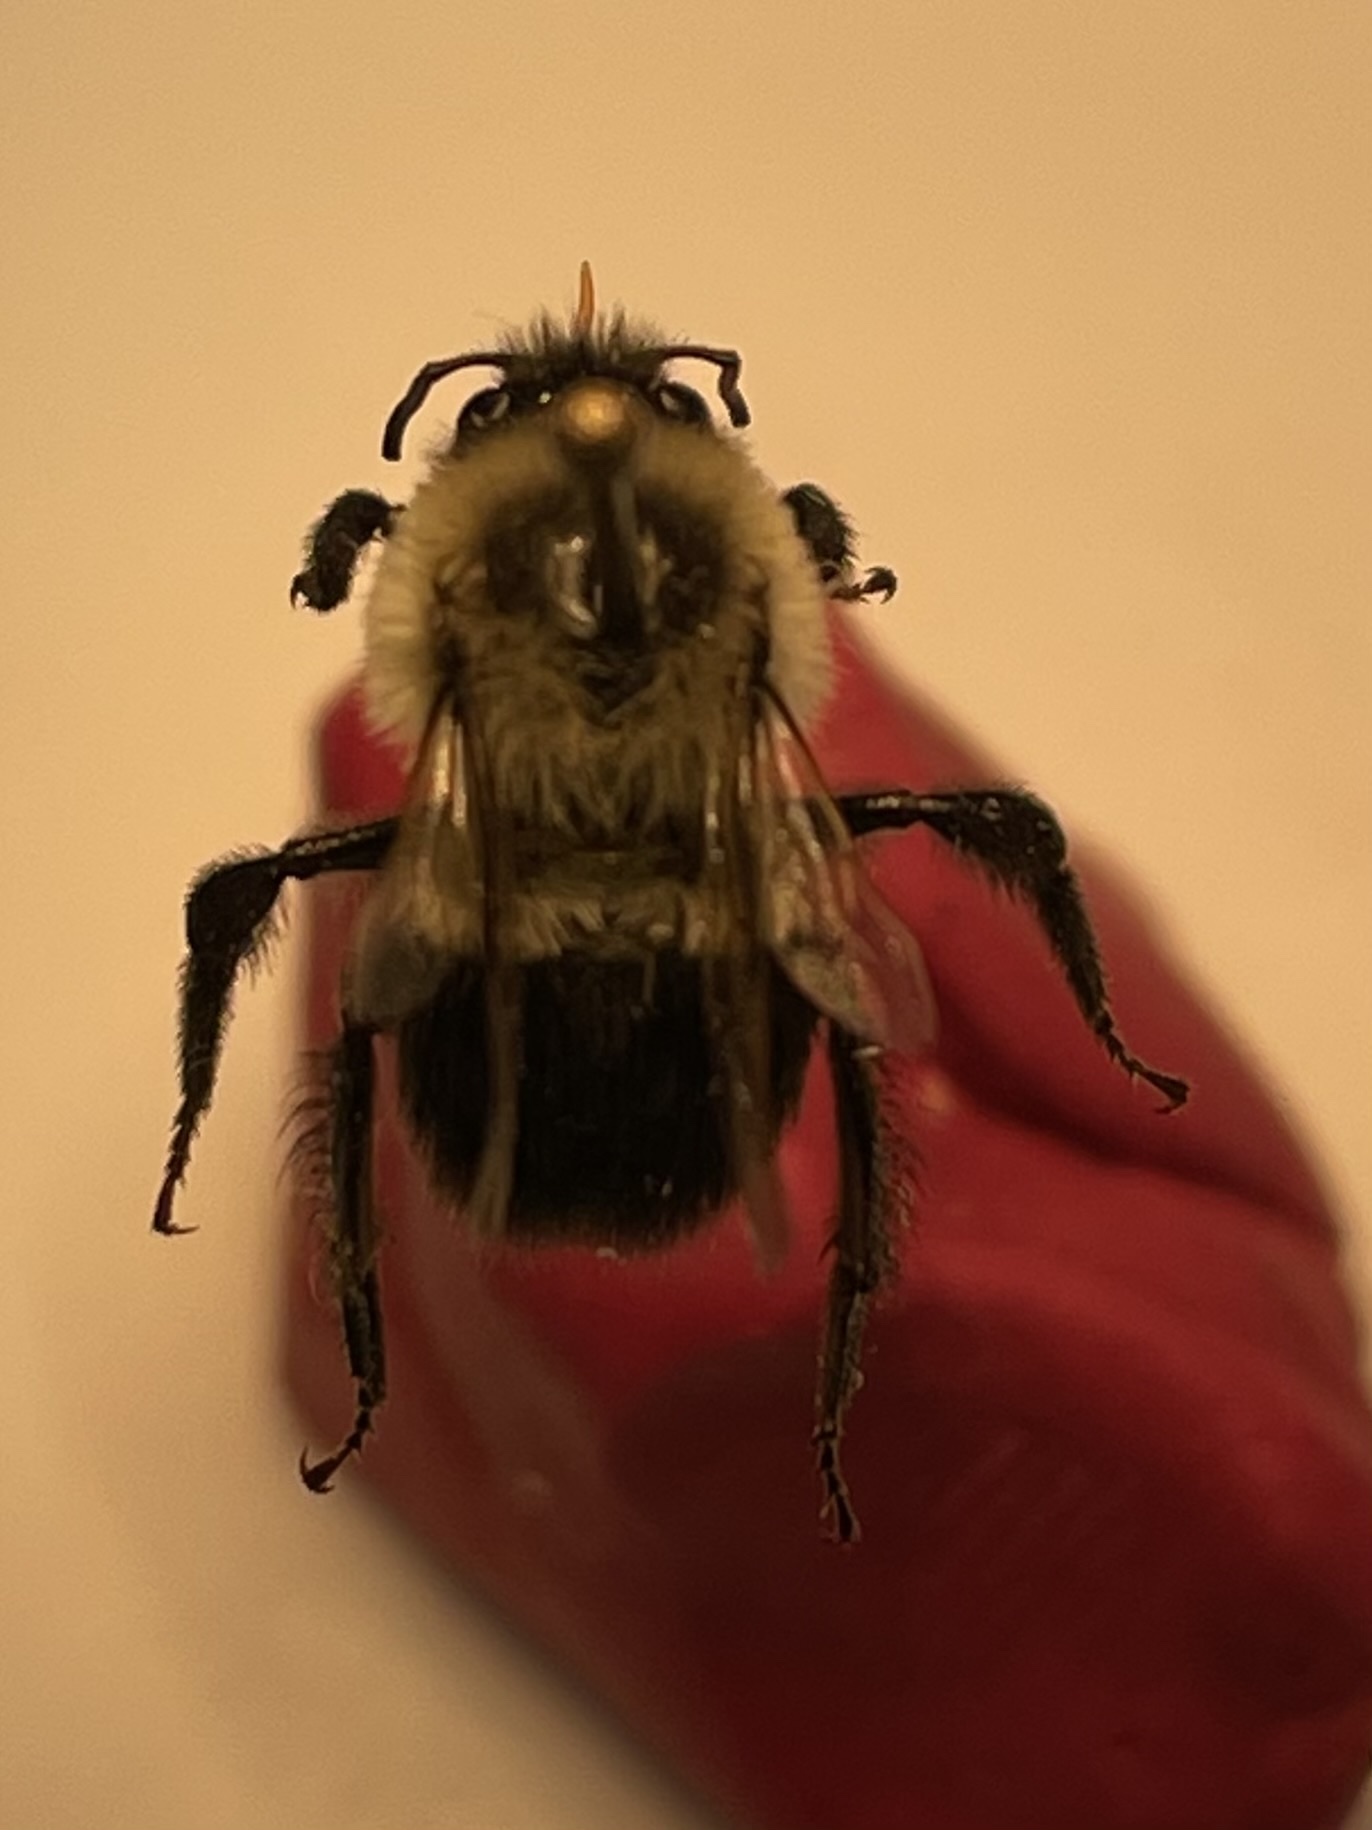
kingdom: Animalia
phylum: Arthropoda
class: Insecta
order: Hymenoptera
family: Apidae
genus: Bombus
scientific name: Bombus impatiens
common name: Common eastern bumble bee
